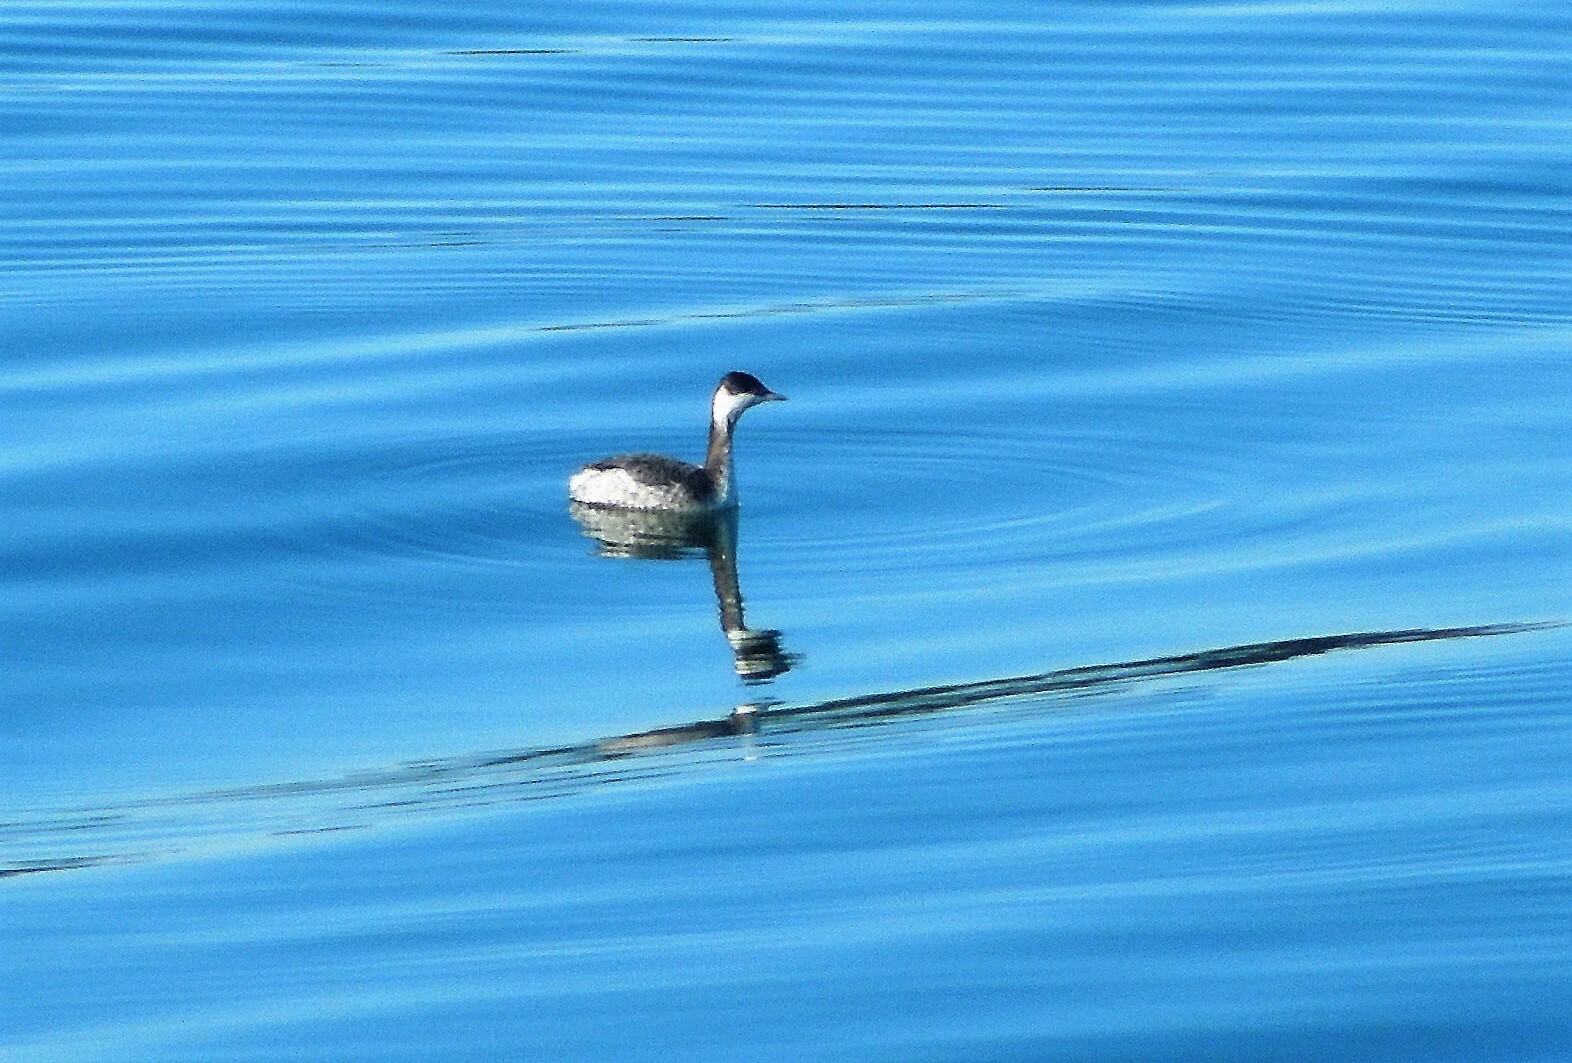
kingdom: Animalia
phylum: Chordata
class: Aves
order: Podicipediformes
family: Podicipedidae
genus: Podiceps
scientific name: Podiceps auritus
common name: Horned grebe
